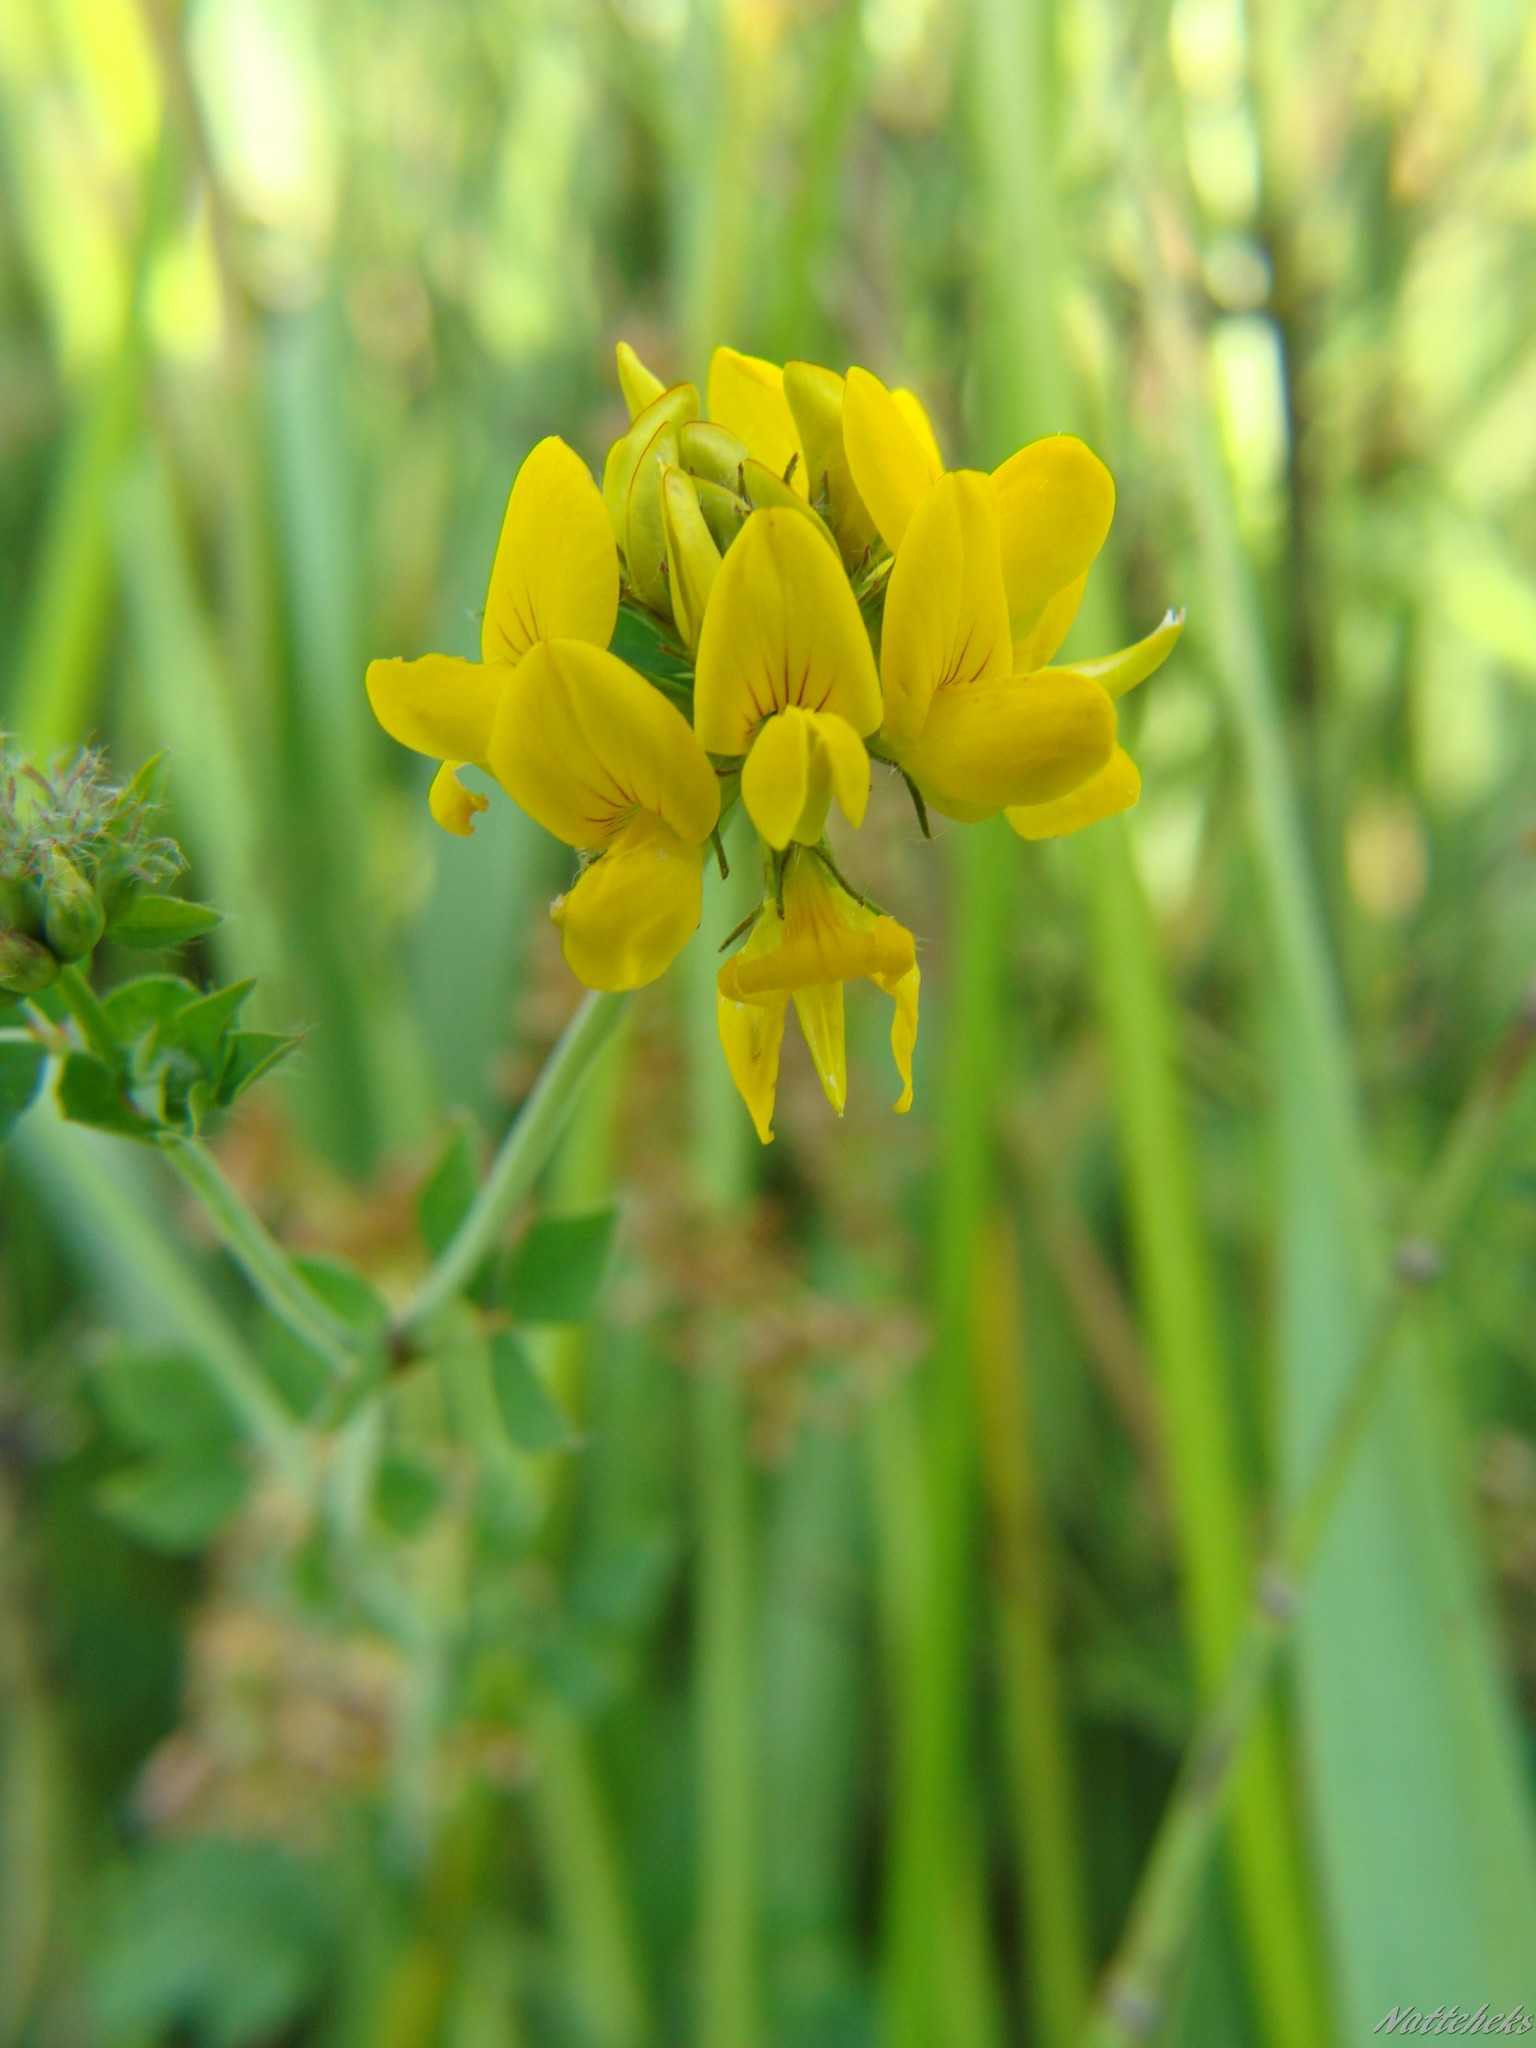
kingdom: Plantae
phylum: Tracheophyta
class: Magnoliopsida
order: Fabales
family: Fabaceae
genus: Lotus
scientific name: Lotus pedunculatus
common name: Greater birdsfoot-trefoil
